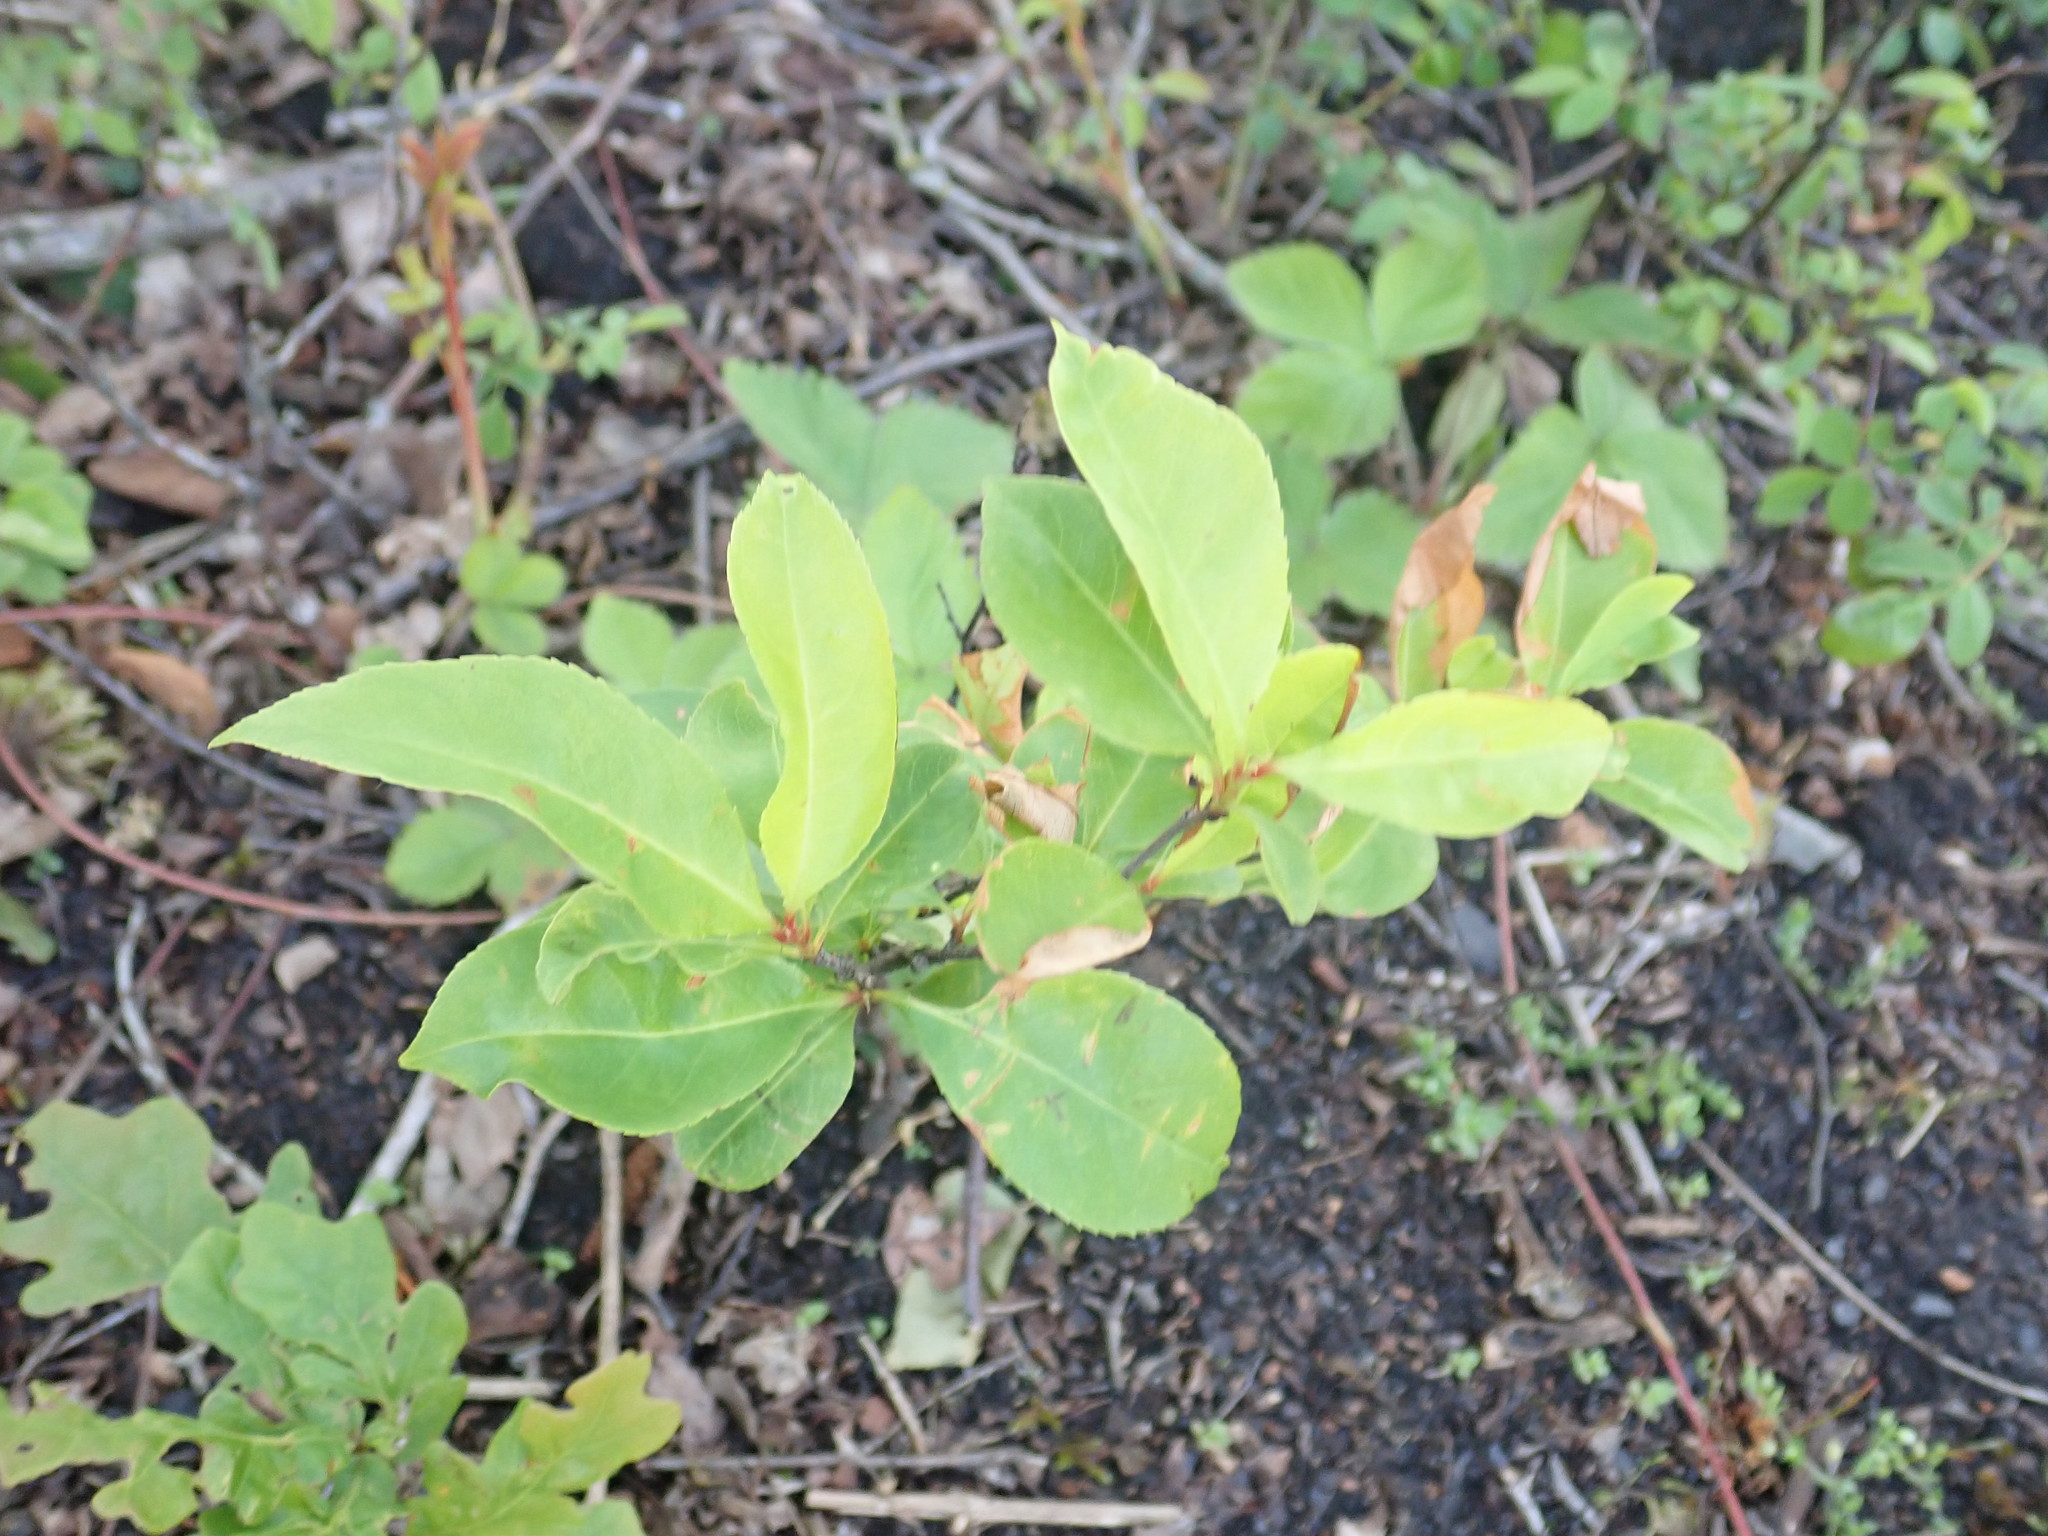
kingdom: Plantae
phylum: Tracheophyta
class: Magnoliopsida
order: Rosales
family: Rosaceae
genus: Prunus
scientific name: Prunus serotina
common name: Black cherry
